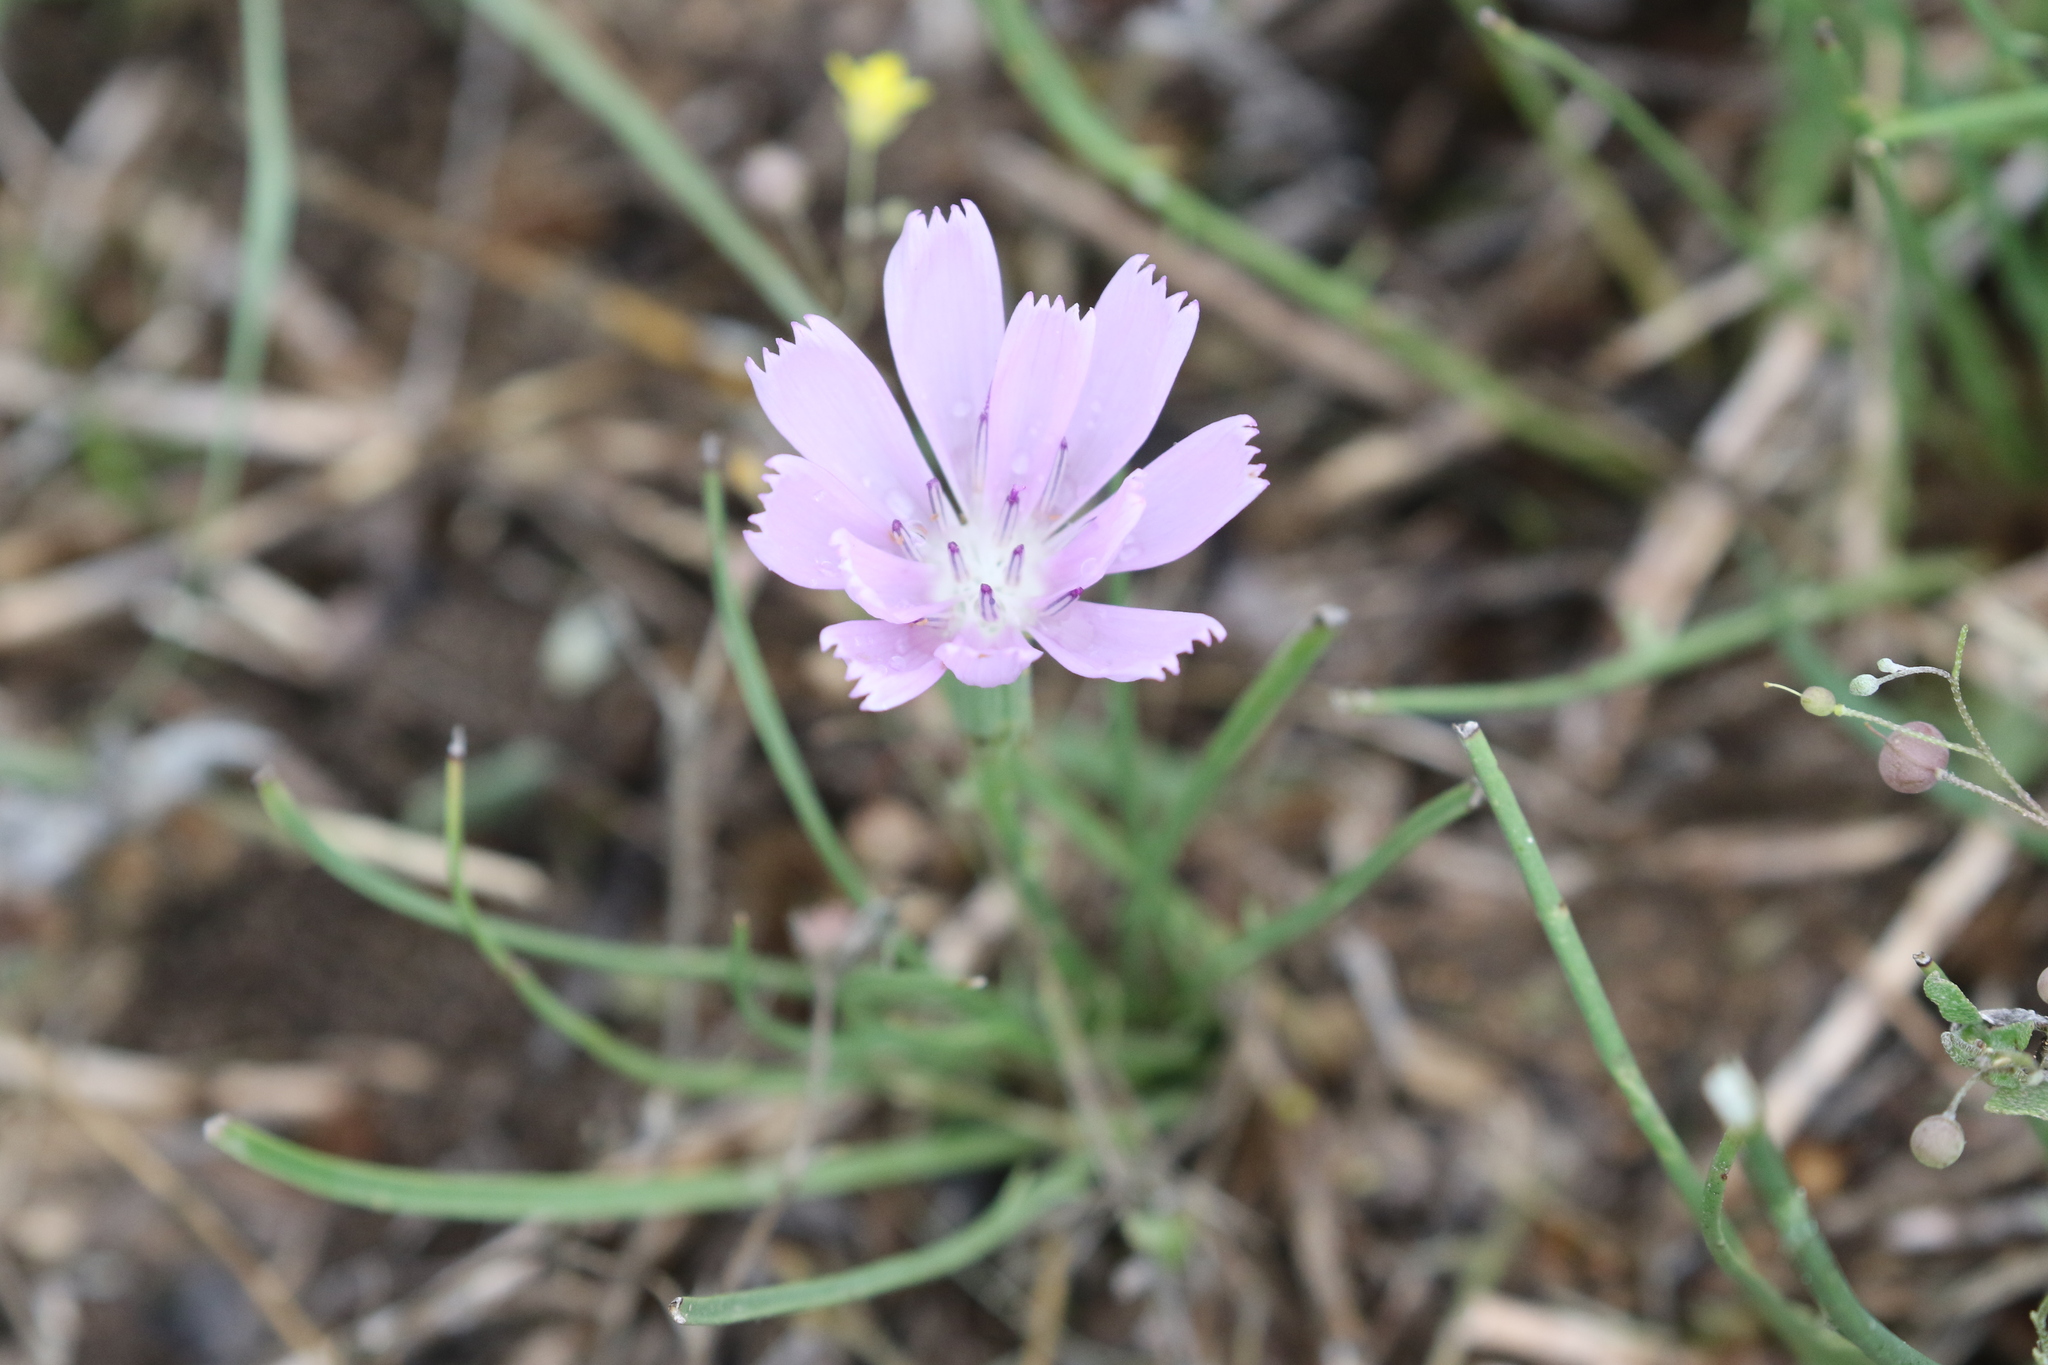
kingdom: Plantae
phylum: Tracheophyta
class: Magnoliopsida
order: Asterales
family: Asteraceae
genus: Lygodesmia
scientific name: Lygodesmia texana
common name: Texas skeleton-plant
